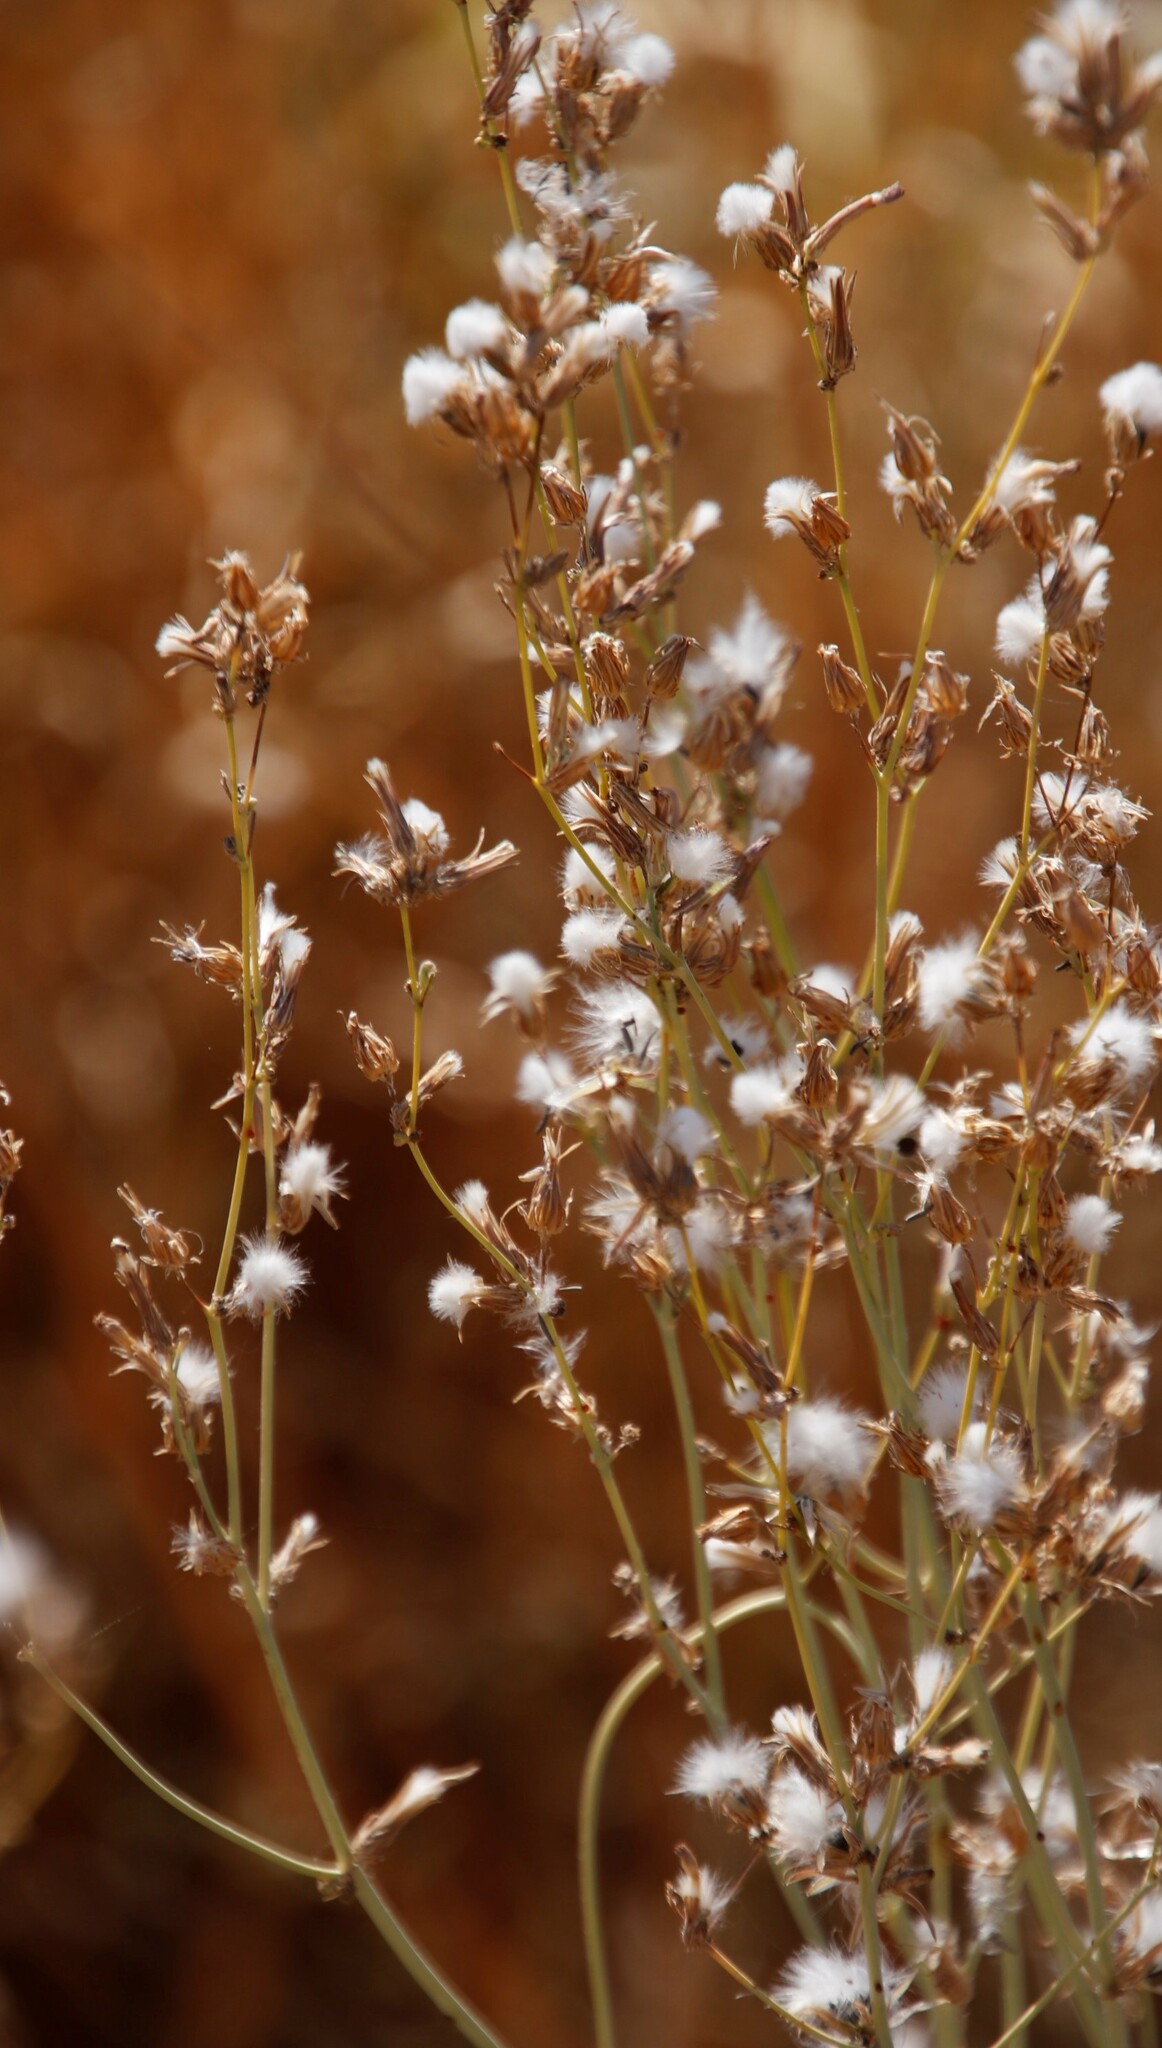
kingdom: Plantae
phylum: Tracheophyta
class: Magnoliopsida
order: Asterales
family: Asteraceae
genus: Launaea
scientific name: Launaea intybacea
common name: Achicoria azul
